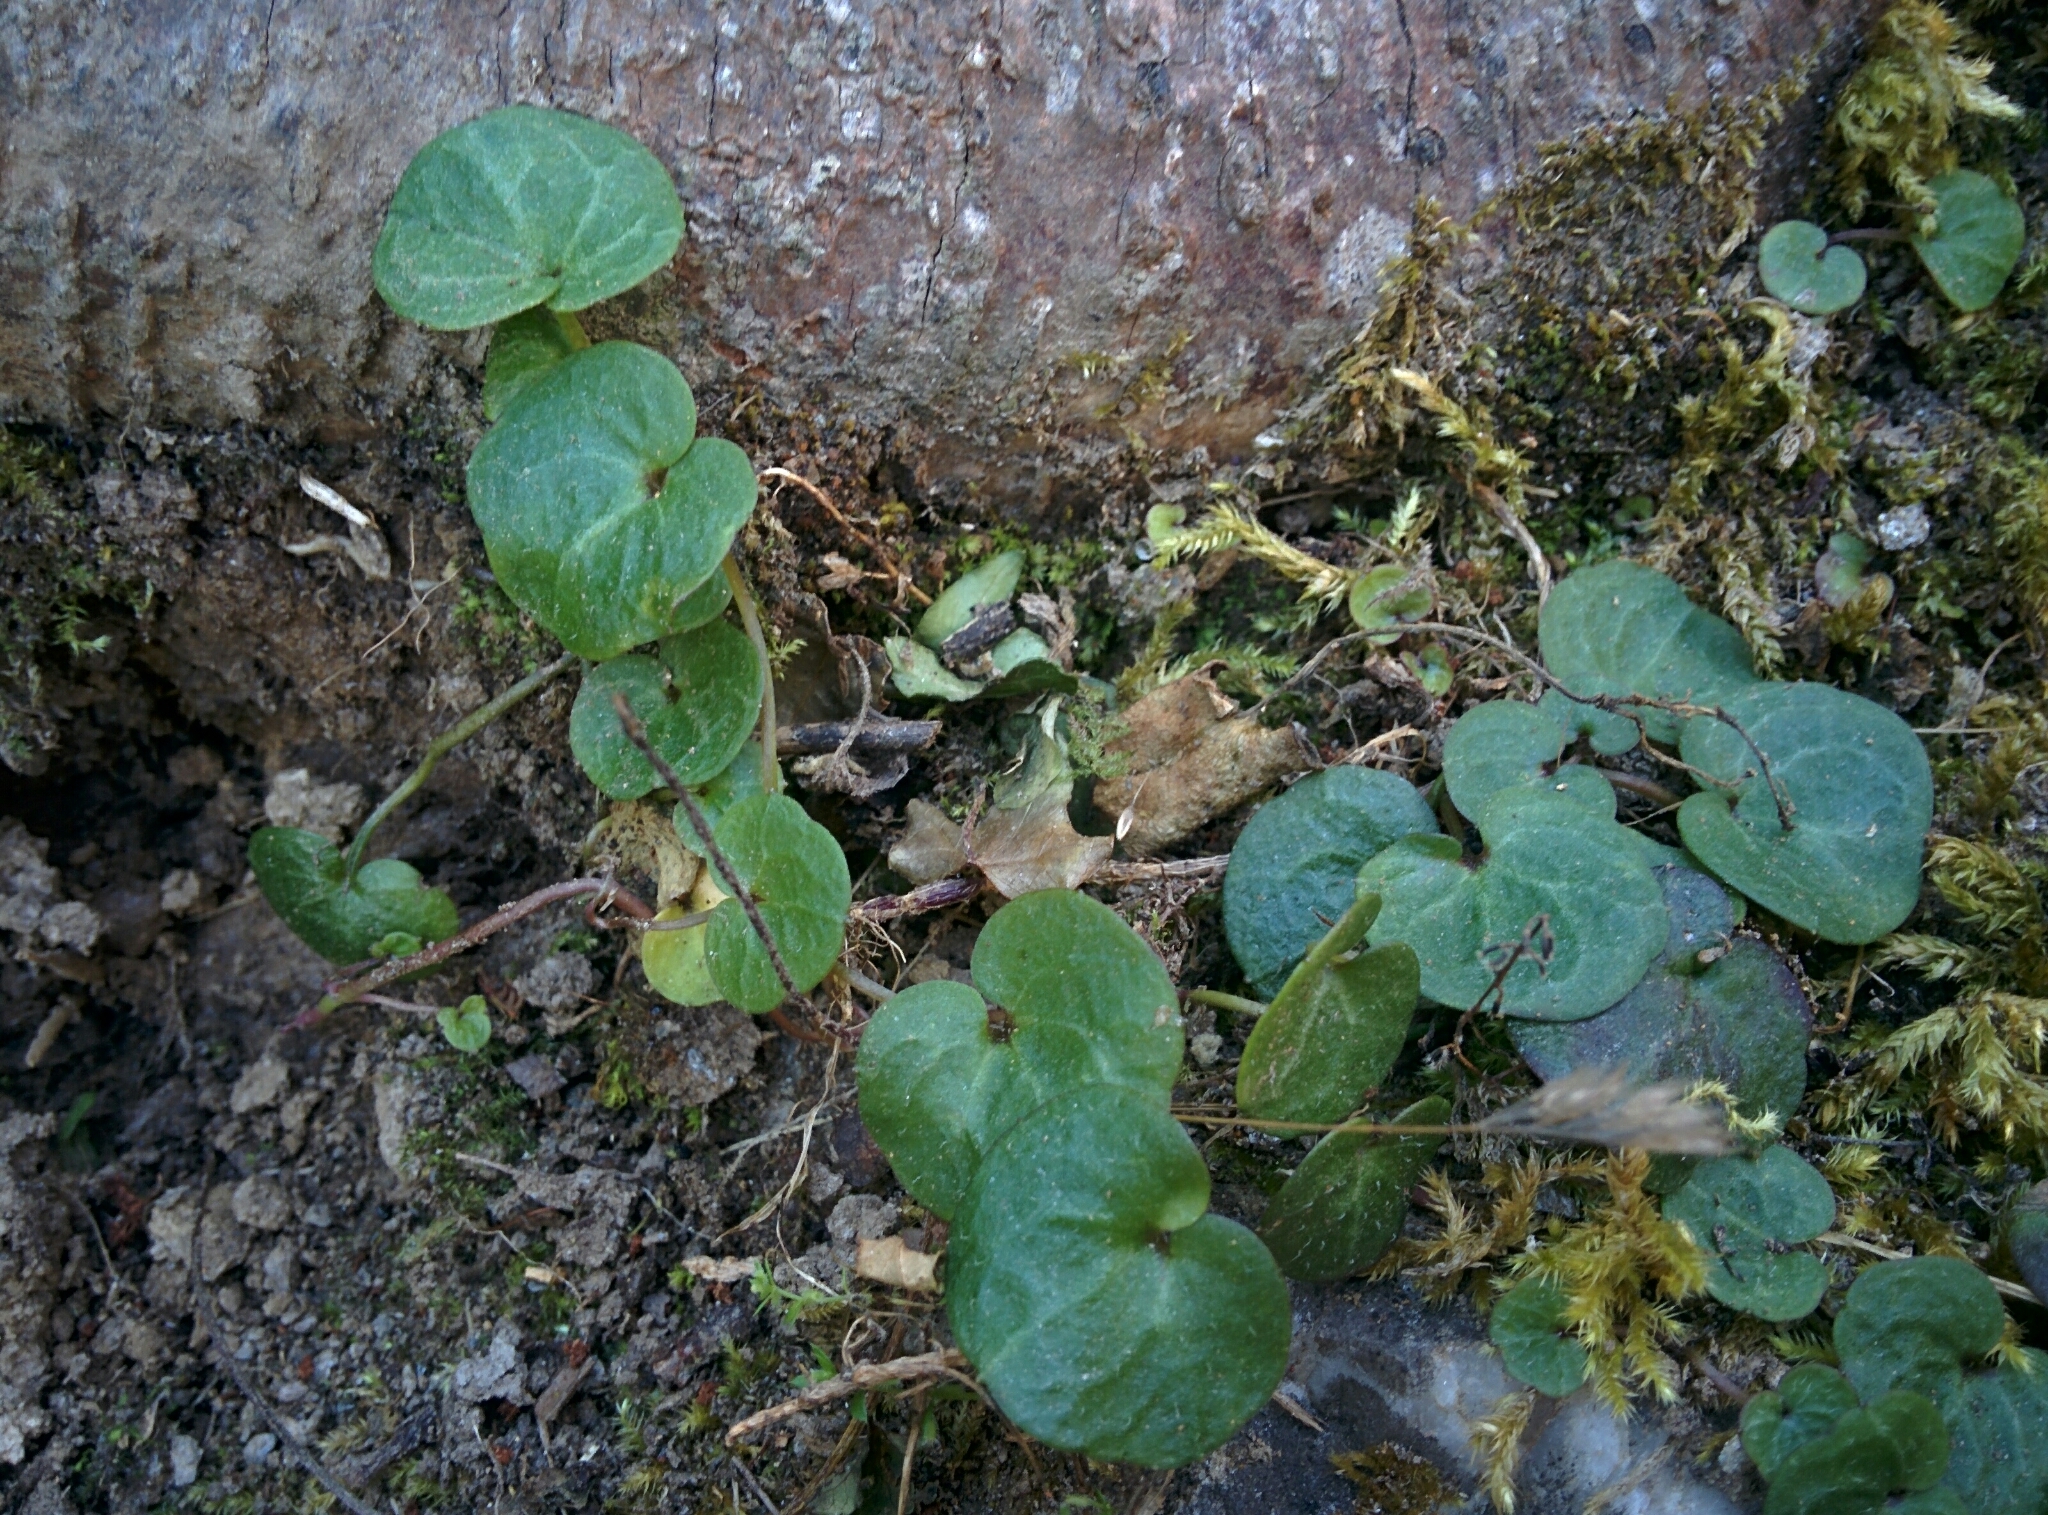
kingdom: Plantae
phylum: Tracheophyta
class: Magnoliopsida
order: Lamiales
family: Plantaginaceae
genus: Cymbalaria
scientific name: Cymbalaria hepaticifolia
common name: Corsican toadflax
